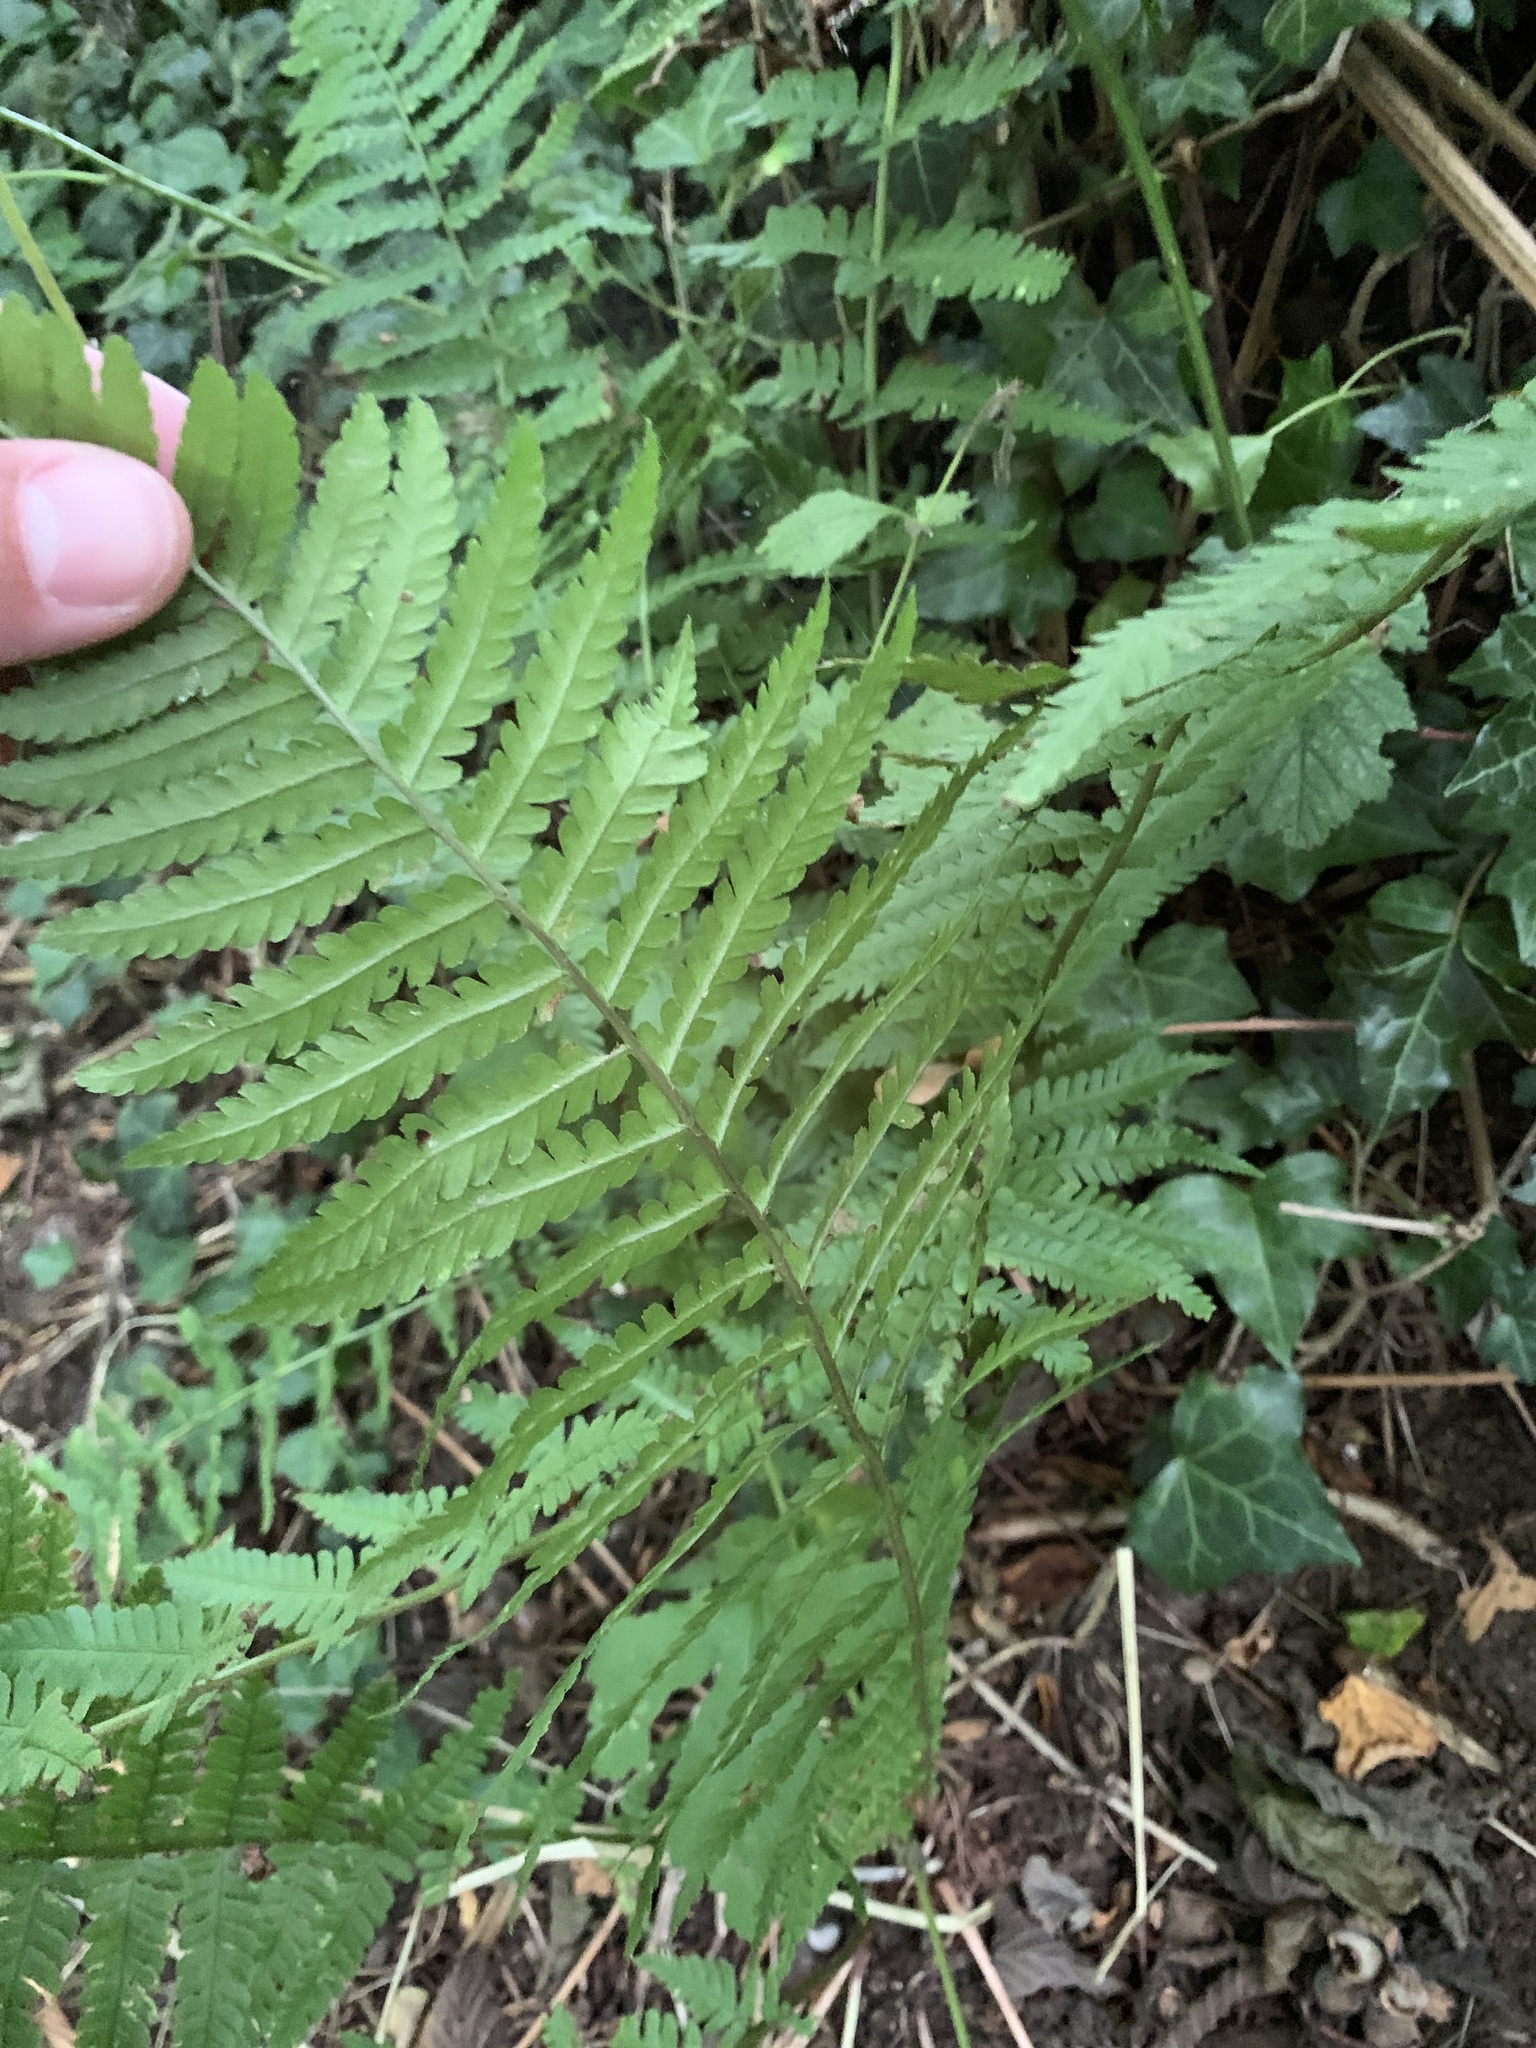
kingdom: Plantae
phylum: Tracheophyta
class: Polypodiopsida
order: Polypodiales
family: Dryopteridaceae
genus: Dryopteris
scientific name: Dryopteris filix-mas
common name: Male fern
